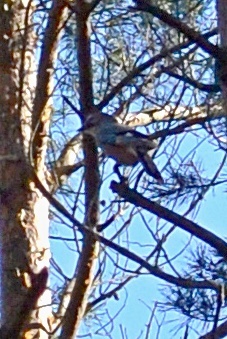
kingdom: Animalia
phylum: Chordata
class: Aves
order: Passeriformes
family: Corvidae
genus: Garrulus
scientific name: Garrulus glandarius
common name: Eurasian jay
